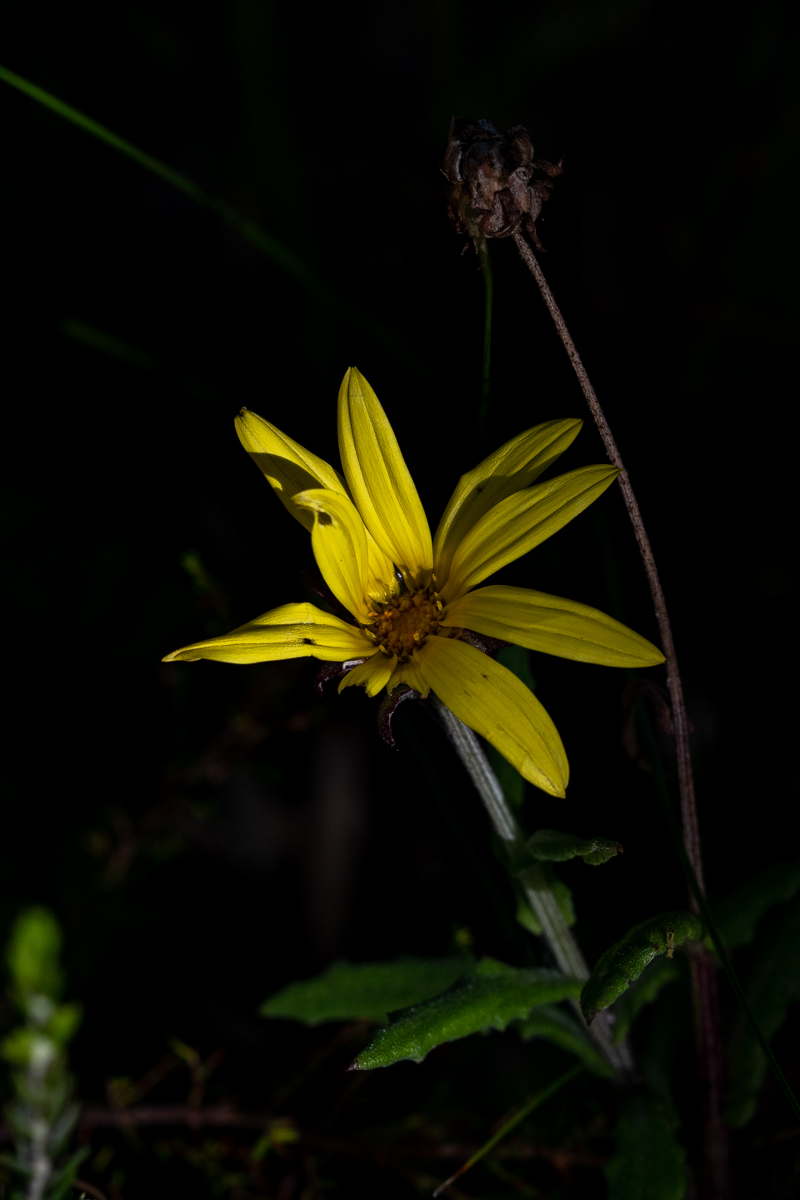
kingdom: Plantae
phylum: Tracheophyta
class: Magnoliopsida
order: Asterales
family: Asteraceae
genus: Arctotis
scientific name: Arctotis scabra
